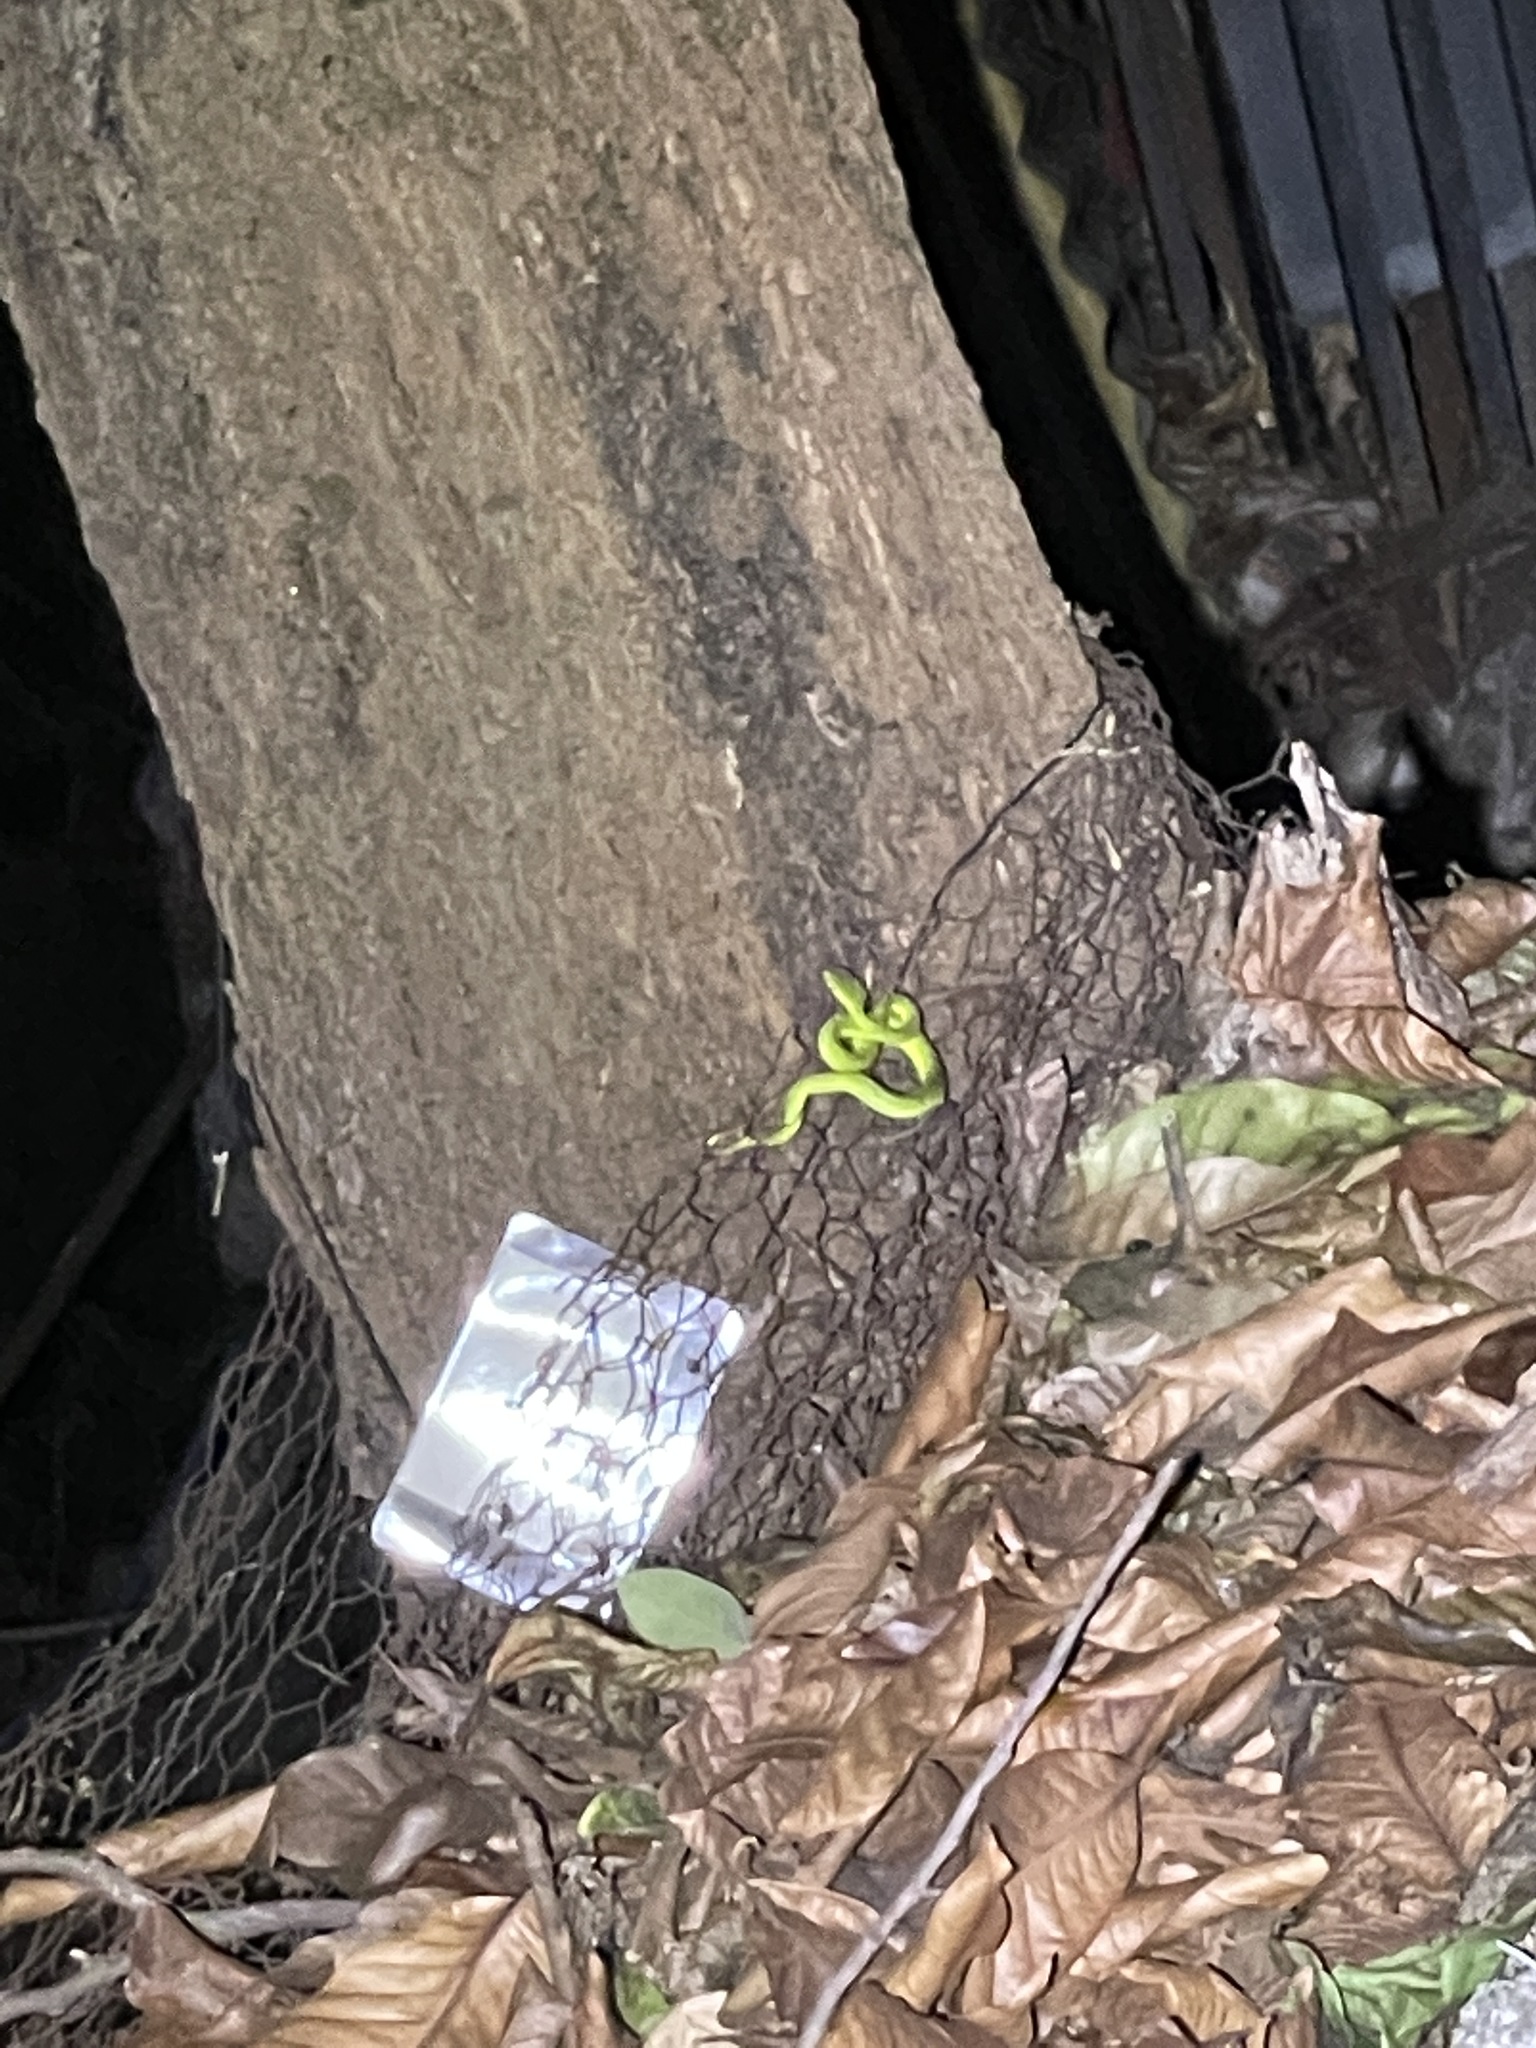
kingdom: Animalia
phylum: Chordata
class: Squamata
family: Viperidae
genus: Trimeresurus
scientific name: Trimeresurus albolabris
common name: White-lipped pitviper
